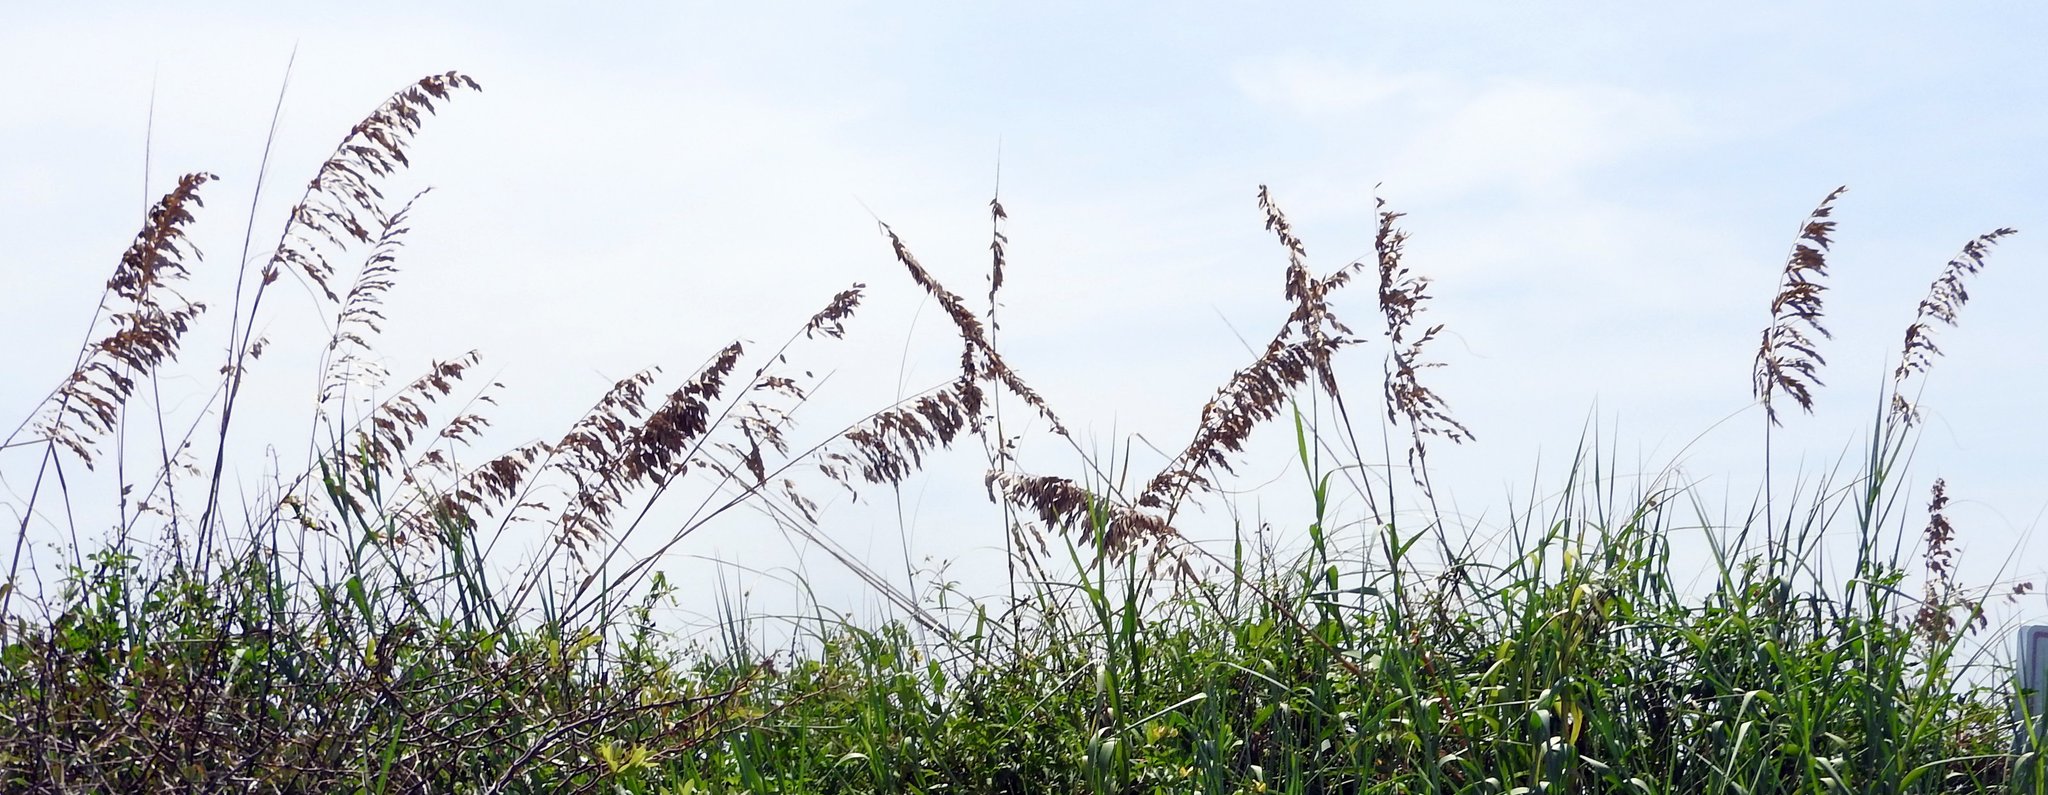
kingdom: Plantae
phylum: Tracheophyta
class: Liliopsida
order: Poales
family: Poaceae
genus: Uniola
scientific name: Uniola paniculata
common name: Seaside-oats
